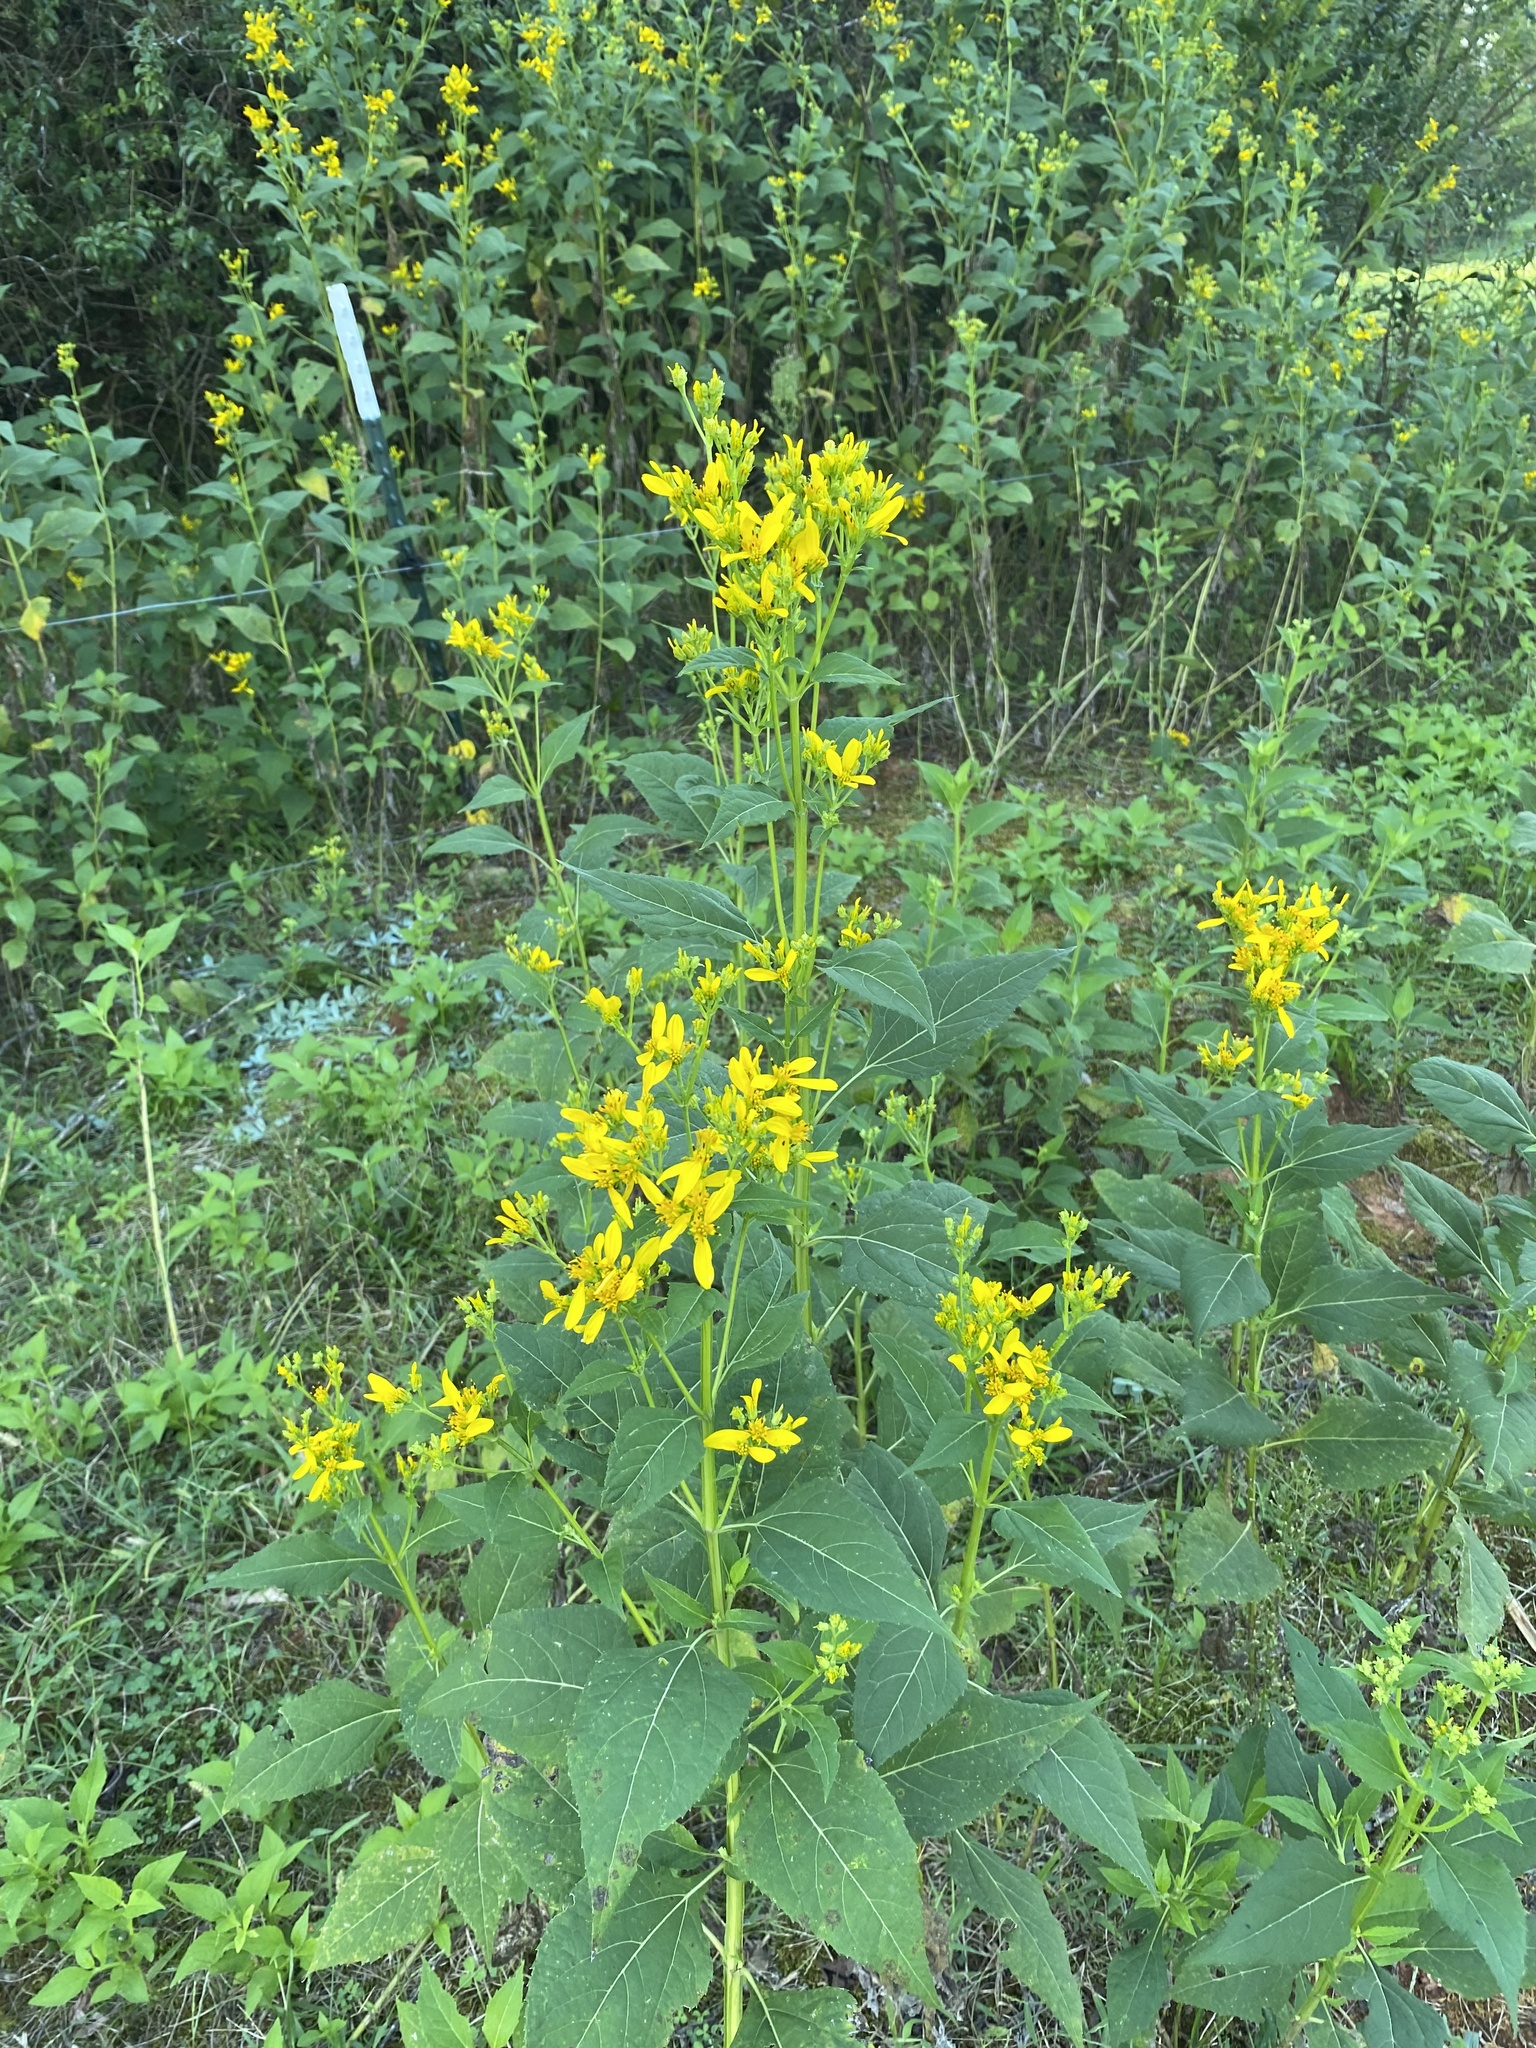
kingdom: Plantae
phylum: Tracheophyta
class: Magnoliopsida
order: Asterales
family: Asteraceae
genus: Verbesina
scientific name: Verbesina occidentalis
